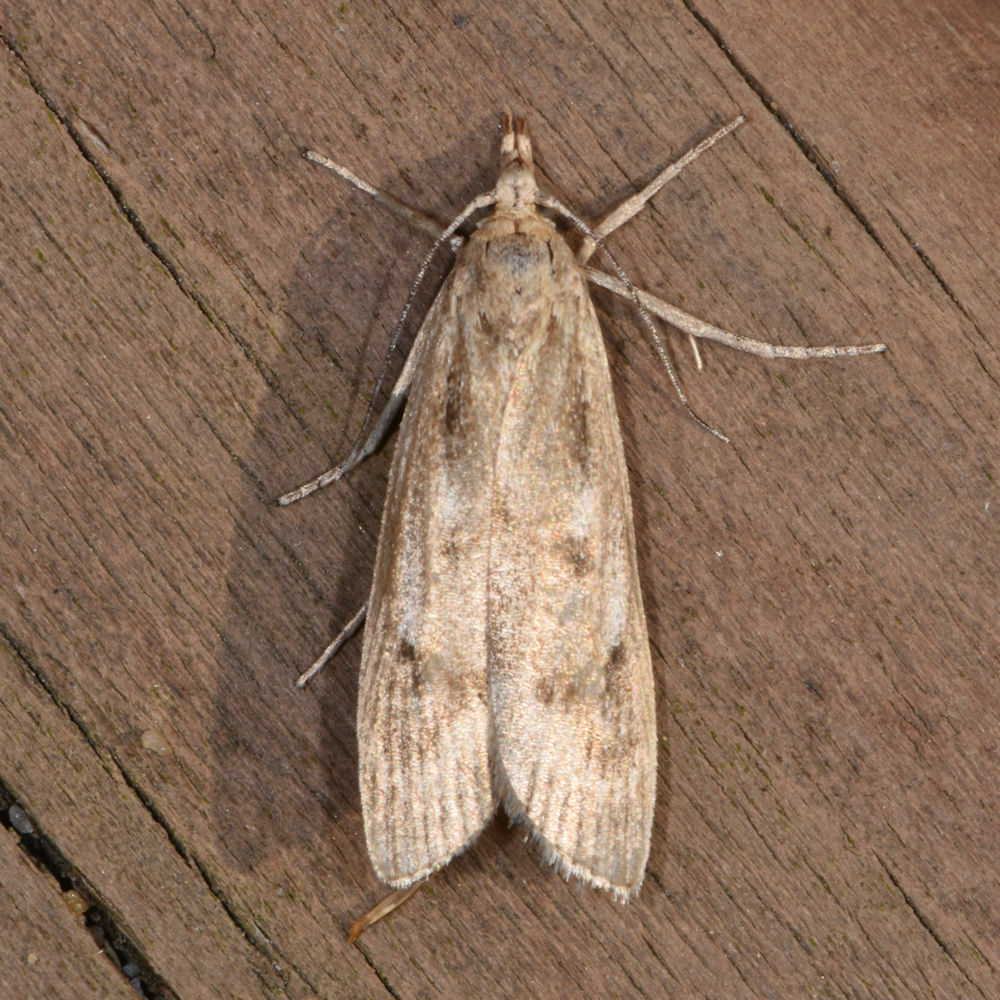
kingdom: Animalia
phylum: Arthropoda
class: Insecta
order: Lepidoptera
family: Crambidae
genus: Occidentalia
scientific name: Occidentalia comptulatalis
